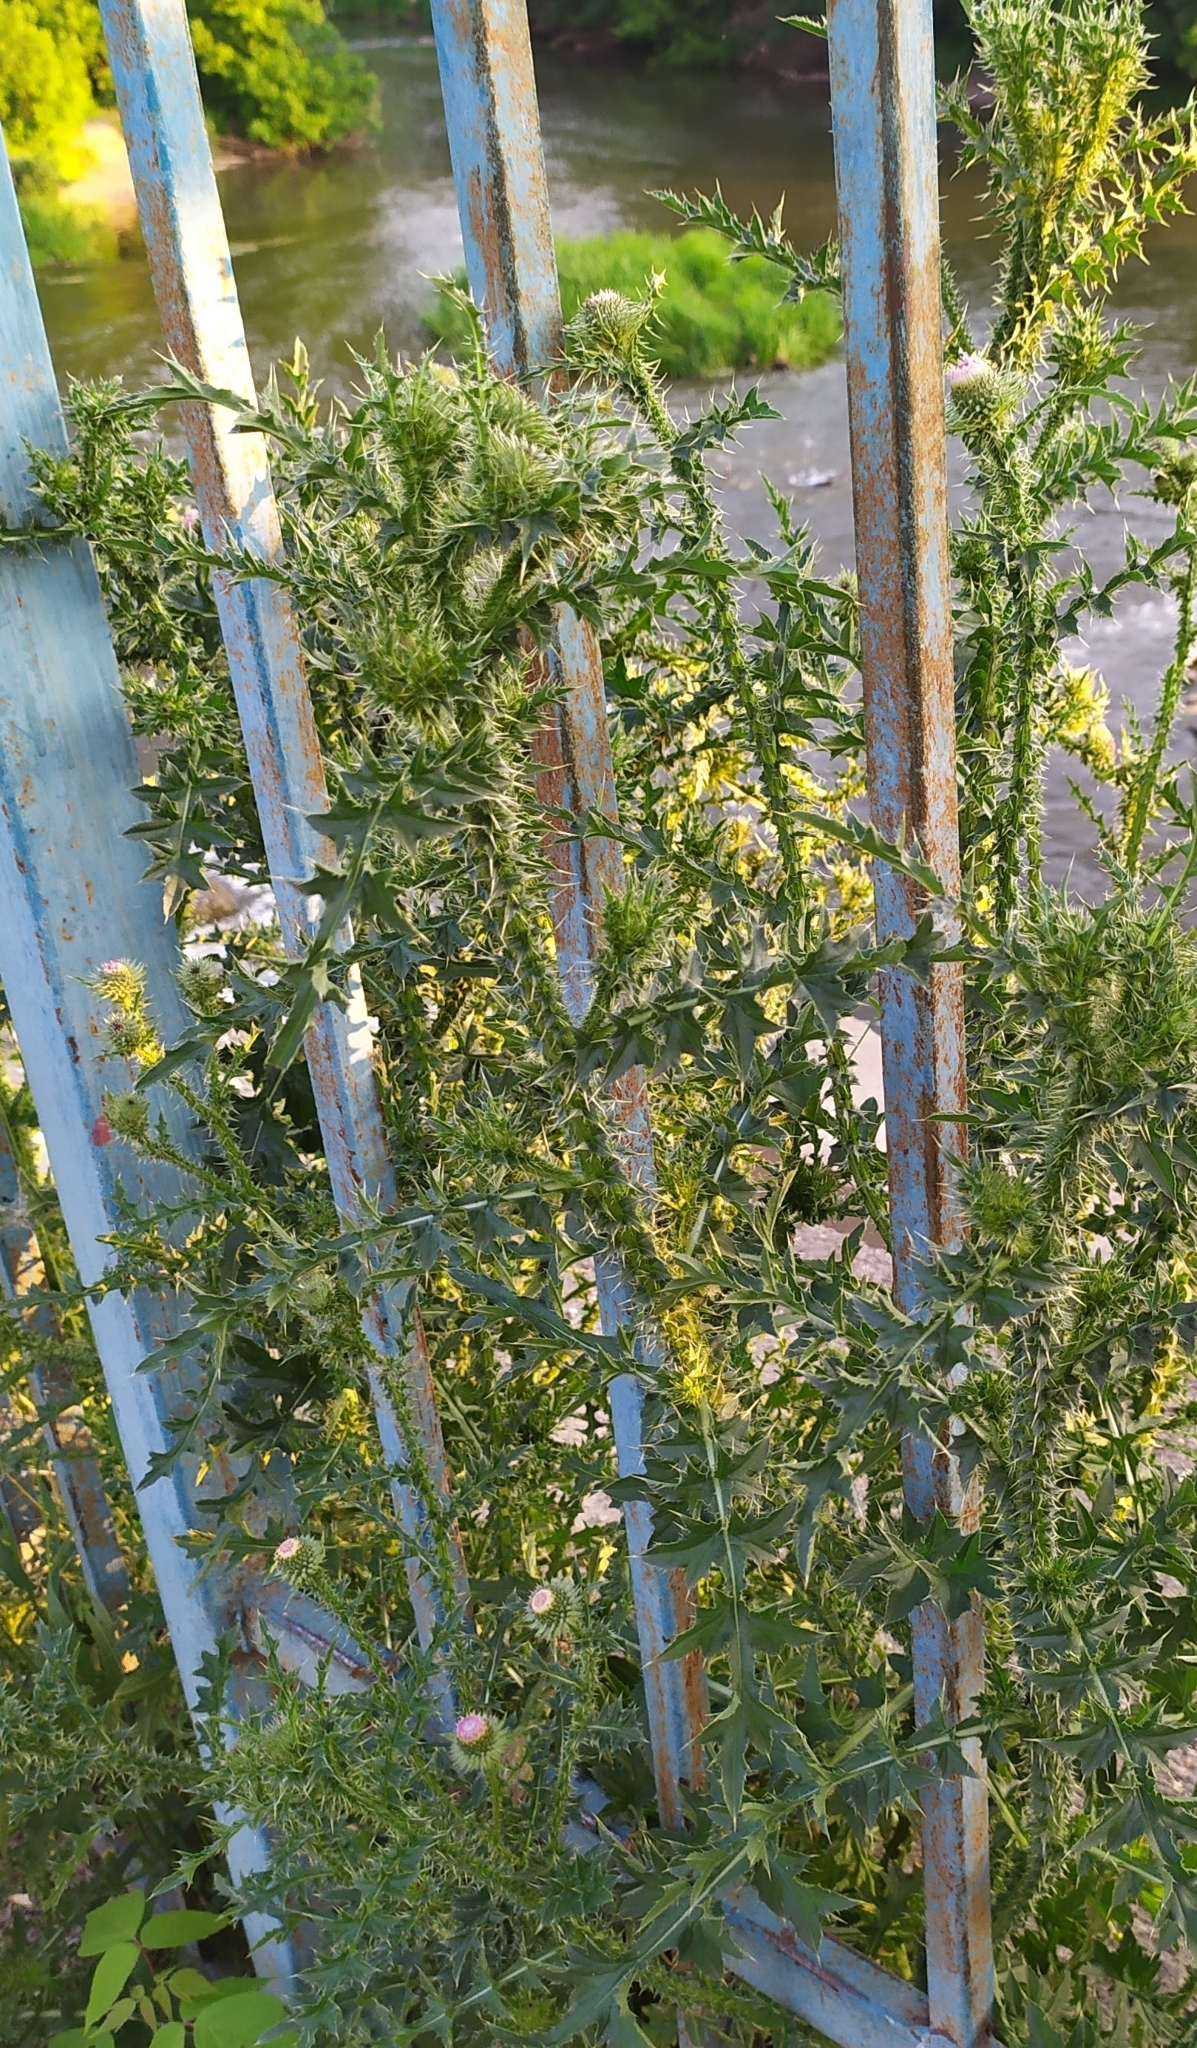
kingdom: Plantae
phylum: Tracheophyta
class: Magnoliopsida
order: Asterales
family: Asteraceae
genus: Carduus
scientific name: Carduus acanthoides
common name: Plumeless thistle
